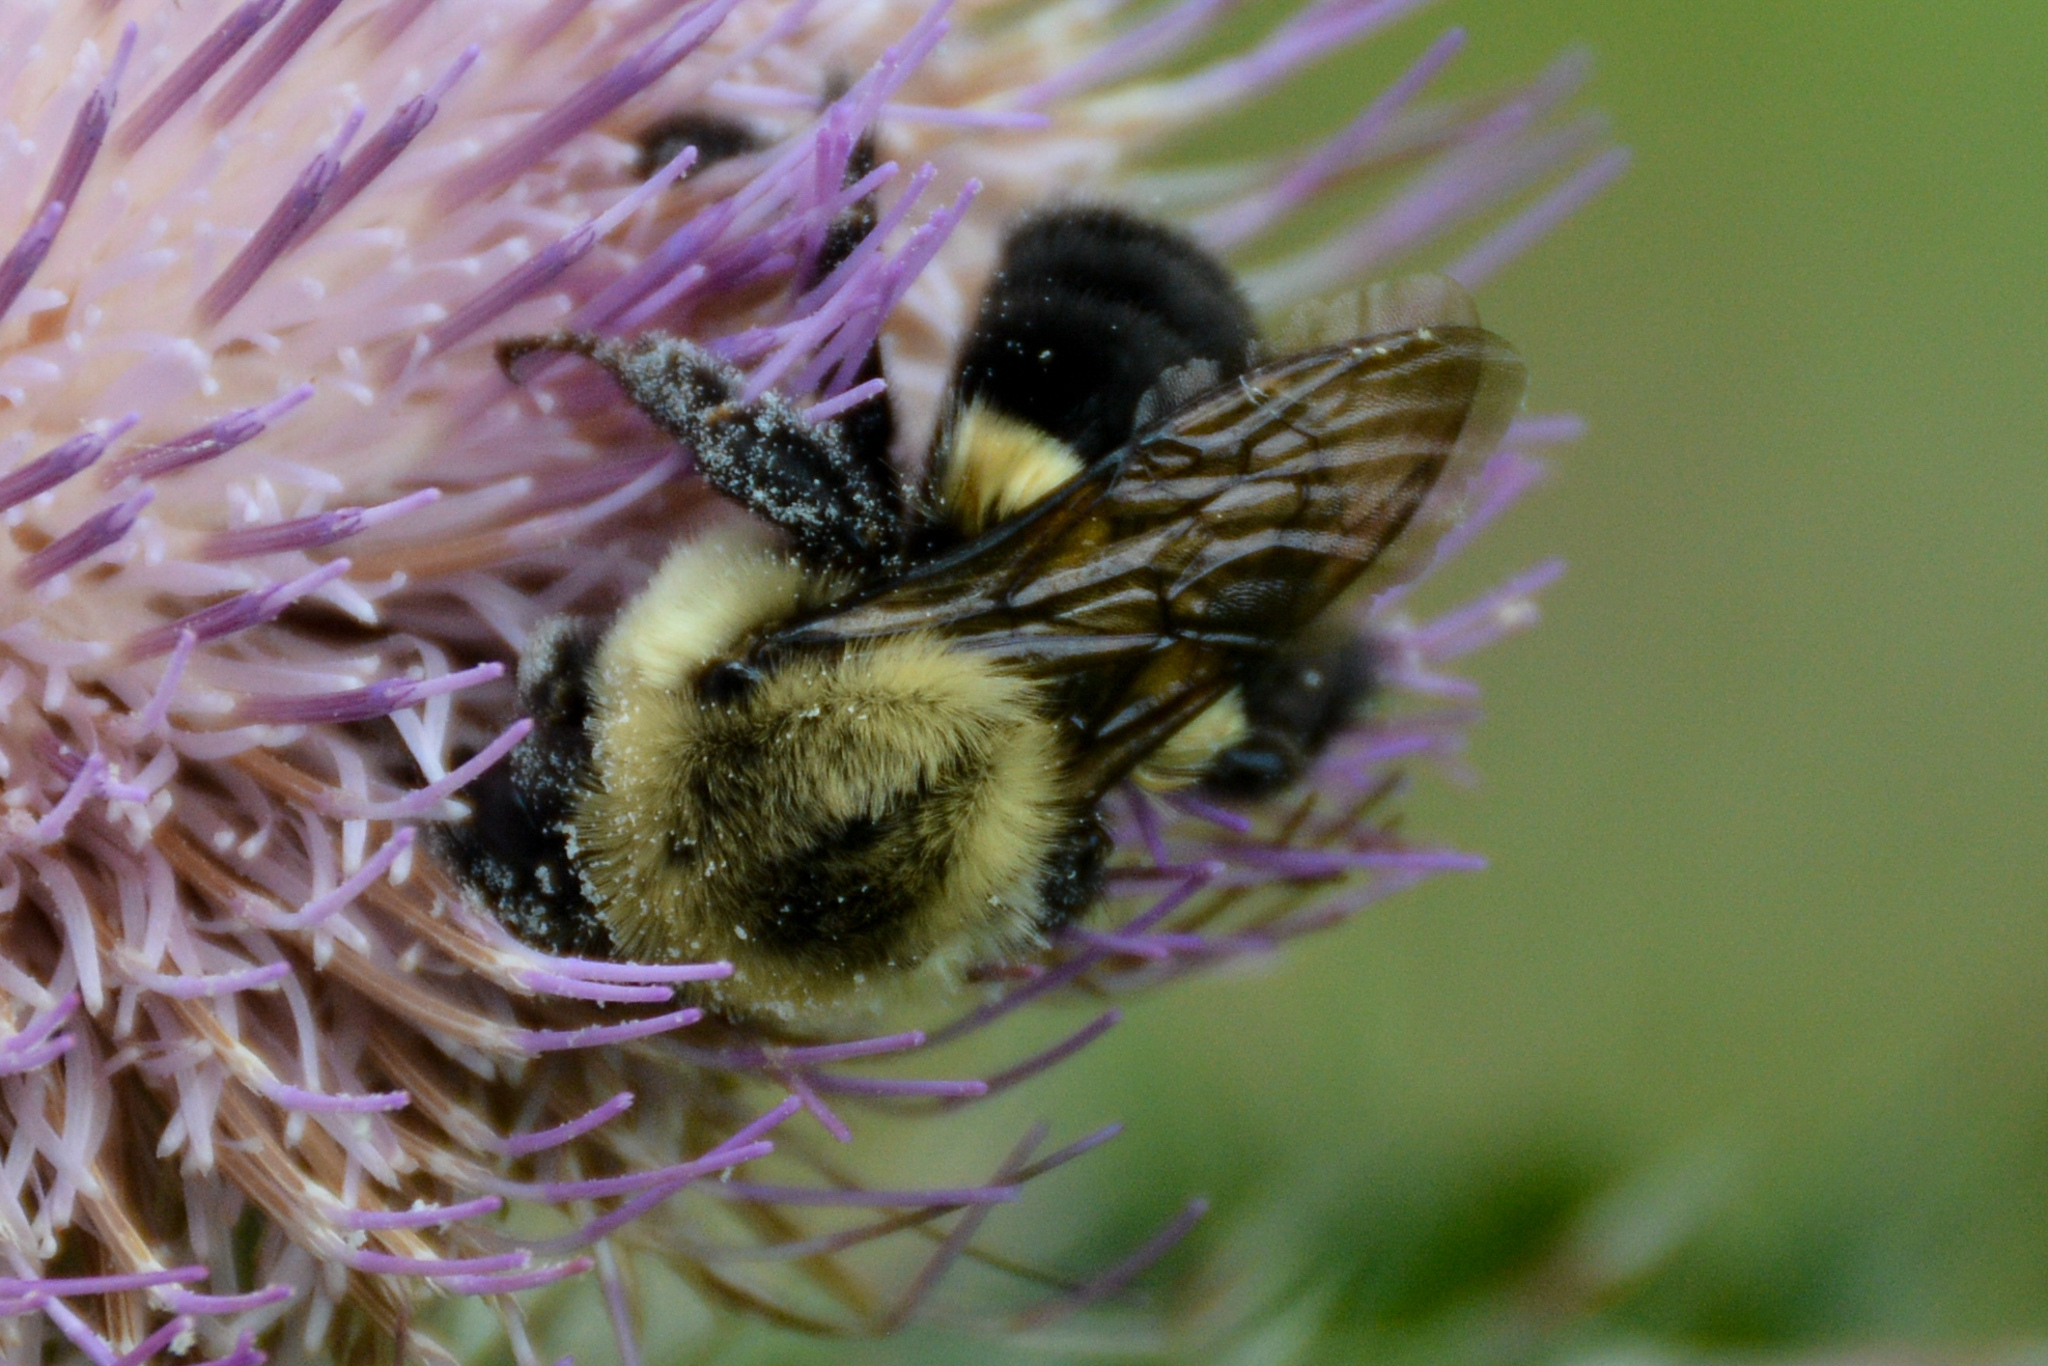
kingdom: Animalia
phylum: Arthropoda
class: Insecta
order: Hymenoptera
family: Apidae
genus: Bombus
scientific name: Bombus impatiens
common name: Common eastern bumble bee
